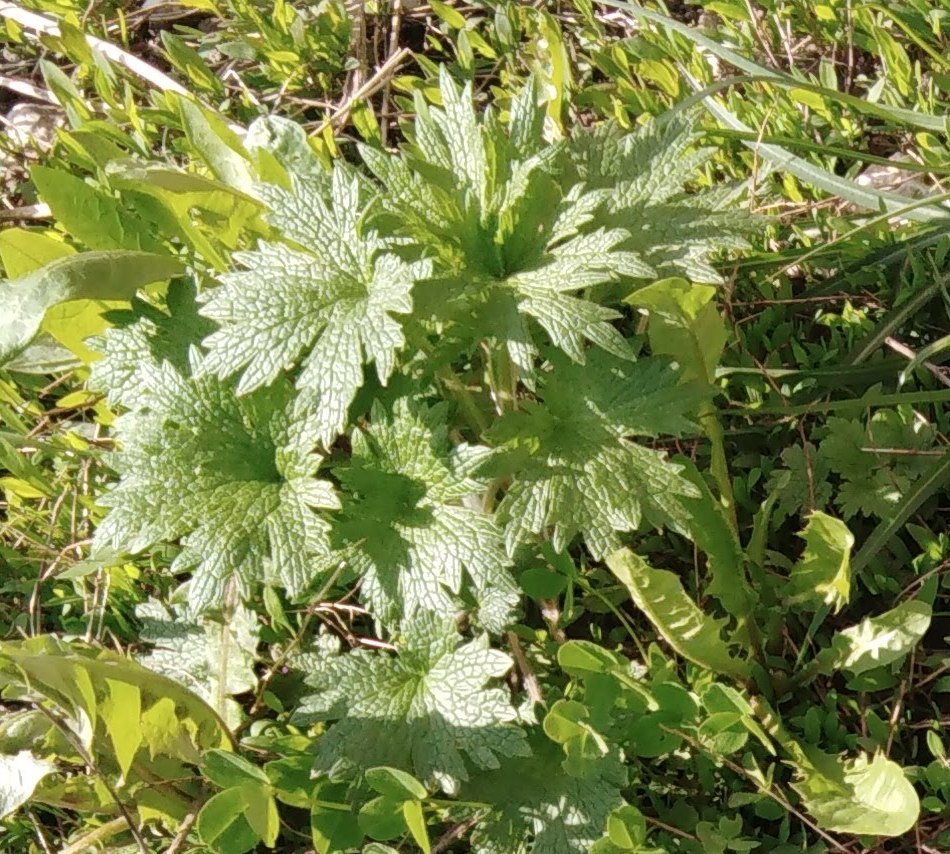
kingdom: Plantae
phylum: Tracheophyta
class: Magnoliopsida
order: Lamiales
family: Lamiaceae
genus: Leonurus
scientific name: Leonurus quinquelobatus
